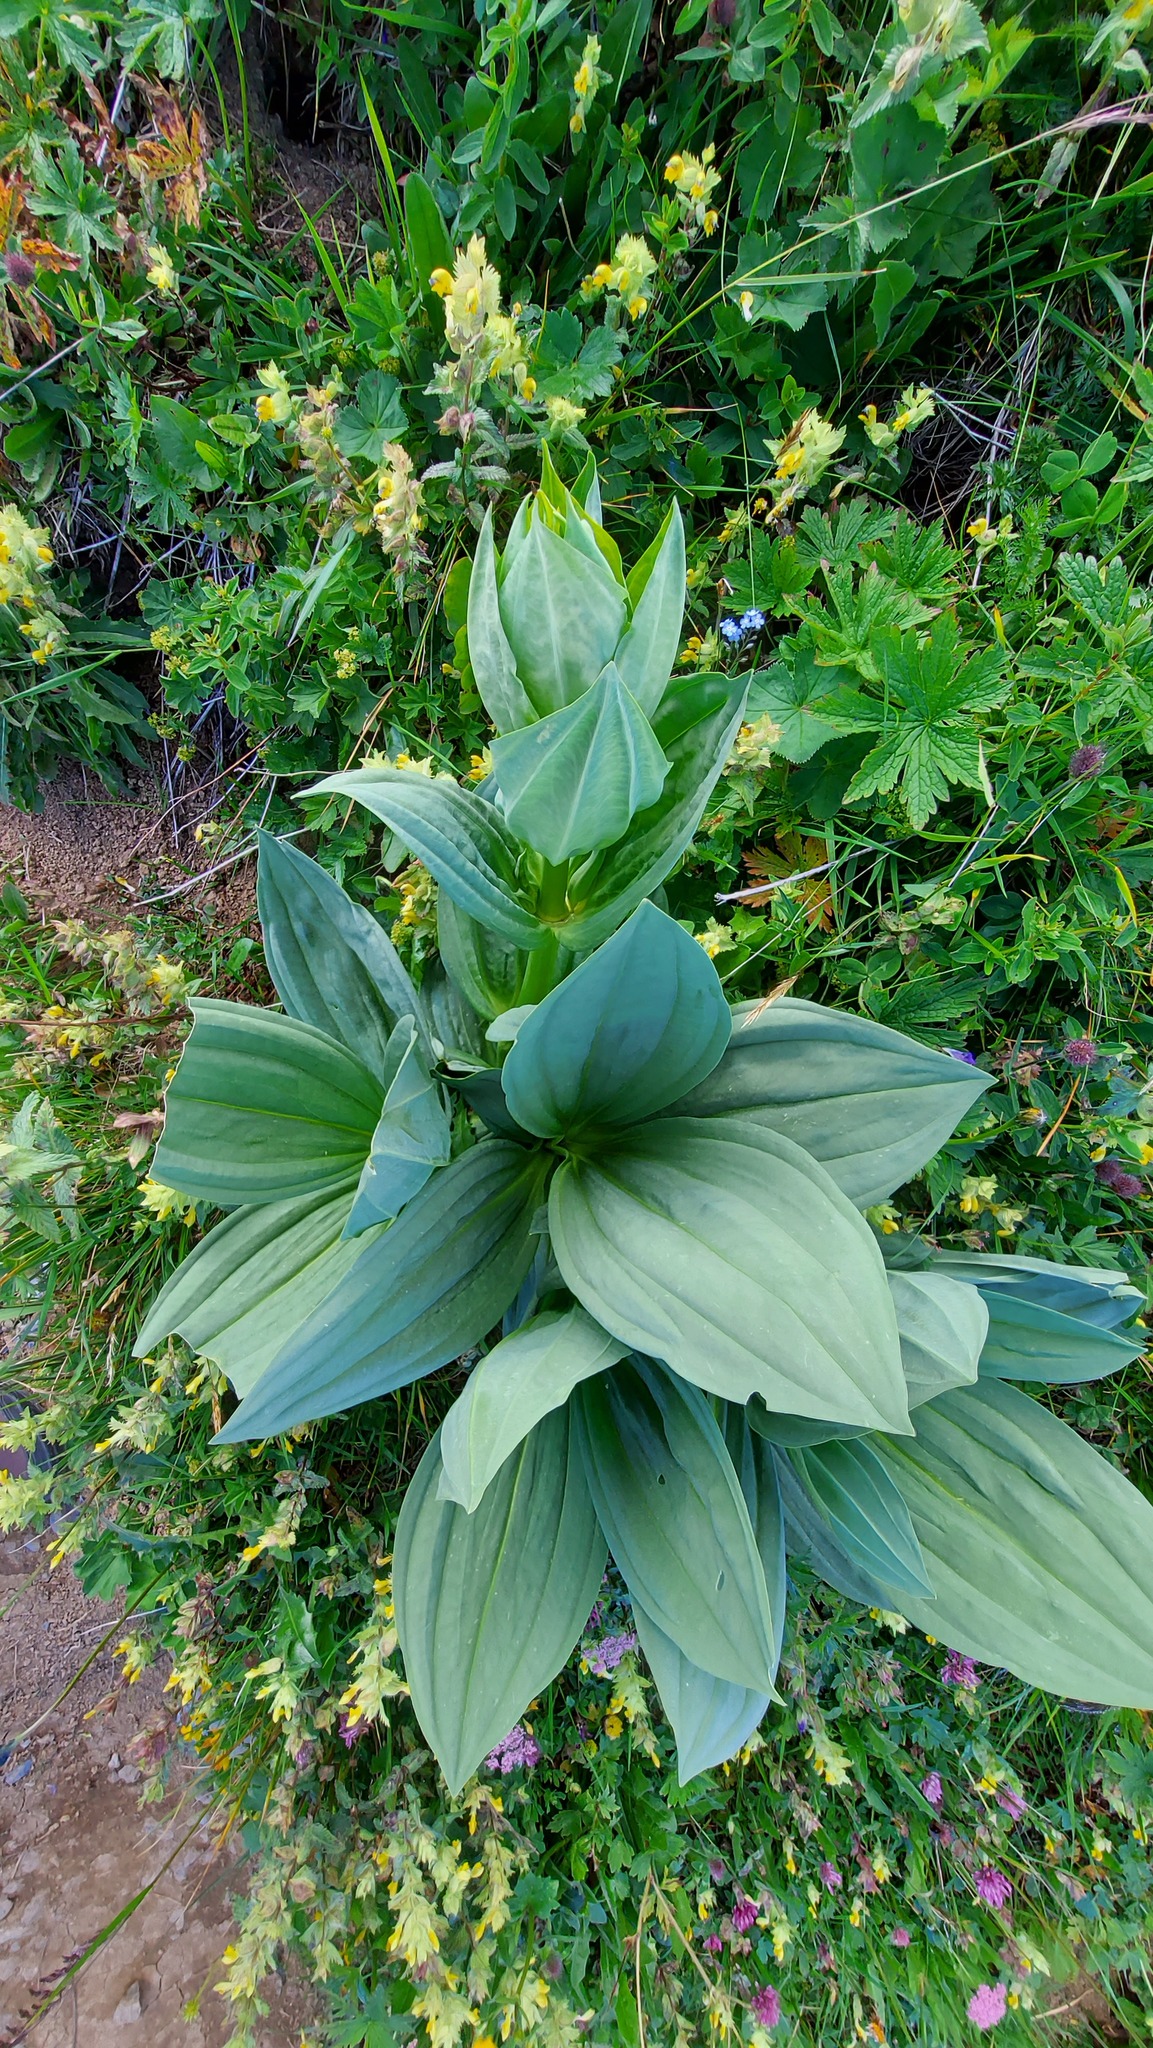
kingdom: Plantae
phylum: Tracheophyta
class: Magnoliopsida
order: Gentianales
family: Gentianaceae
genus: Gentiana
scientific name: Gentiana lutea
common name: Great yellow gentian
